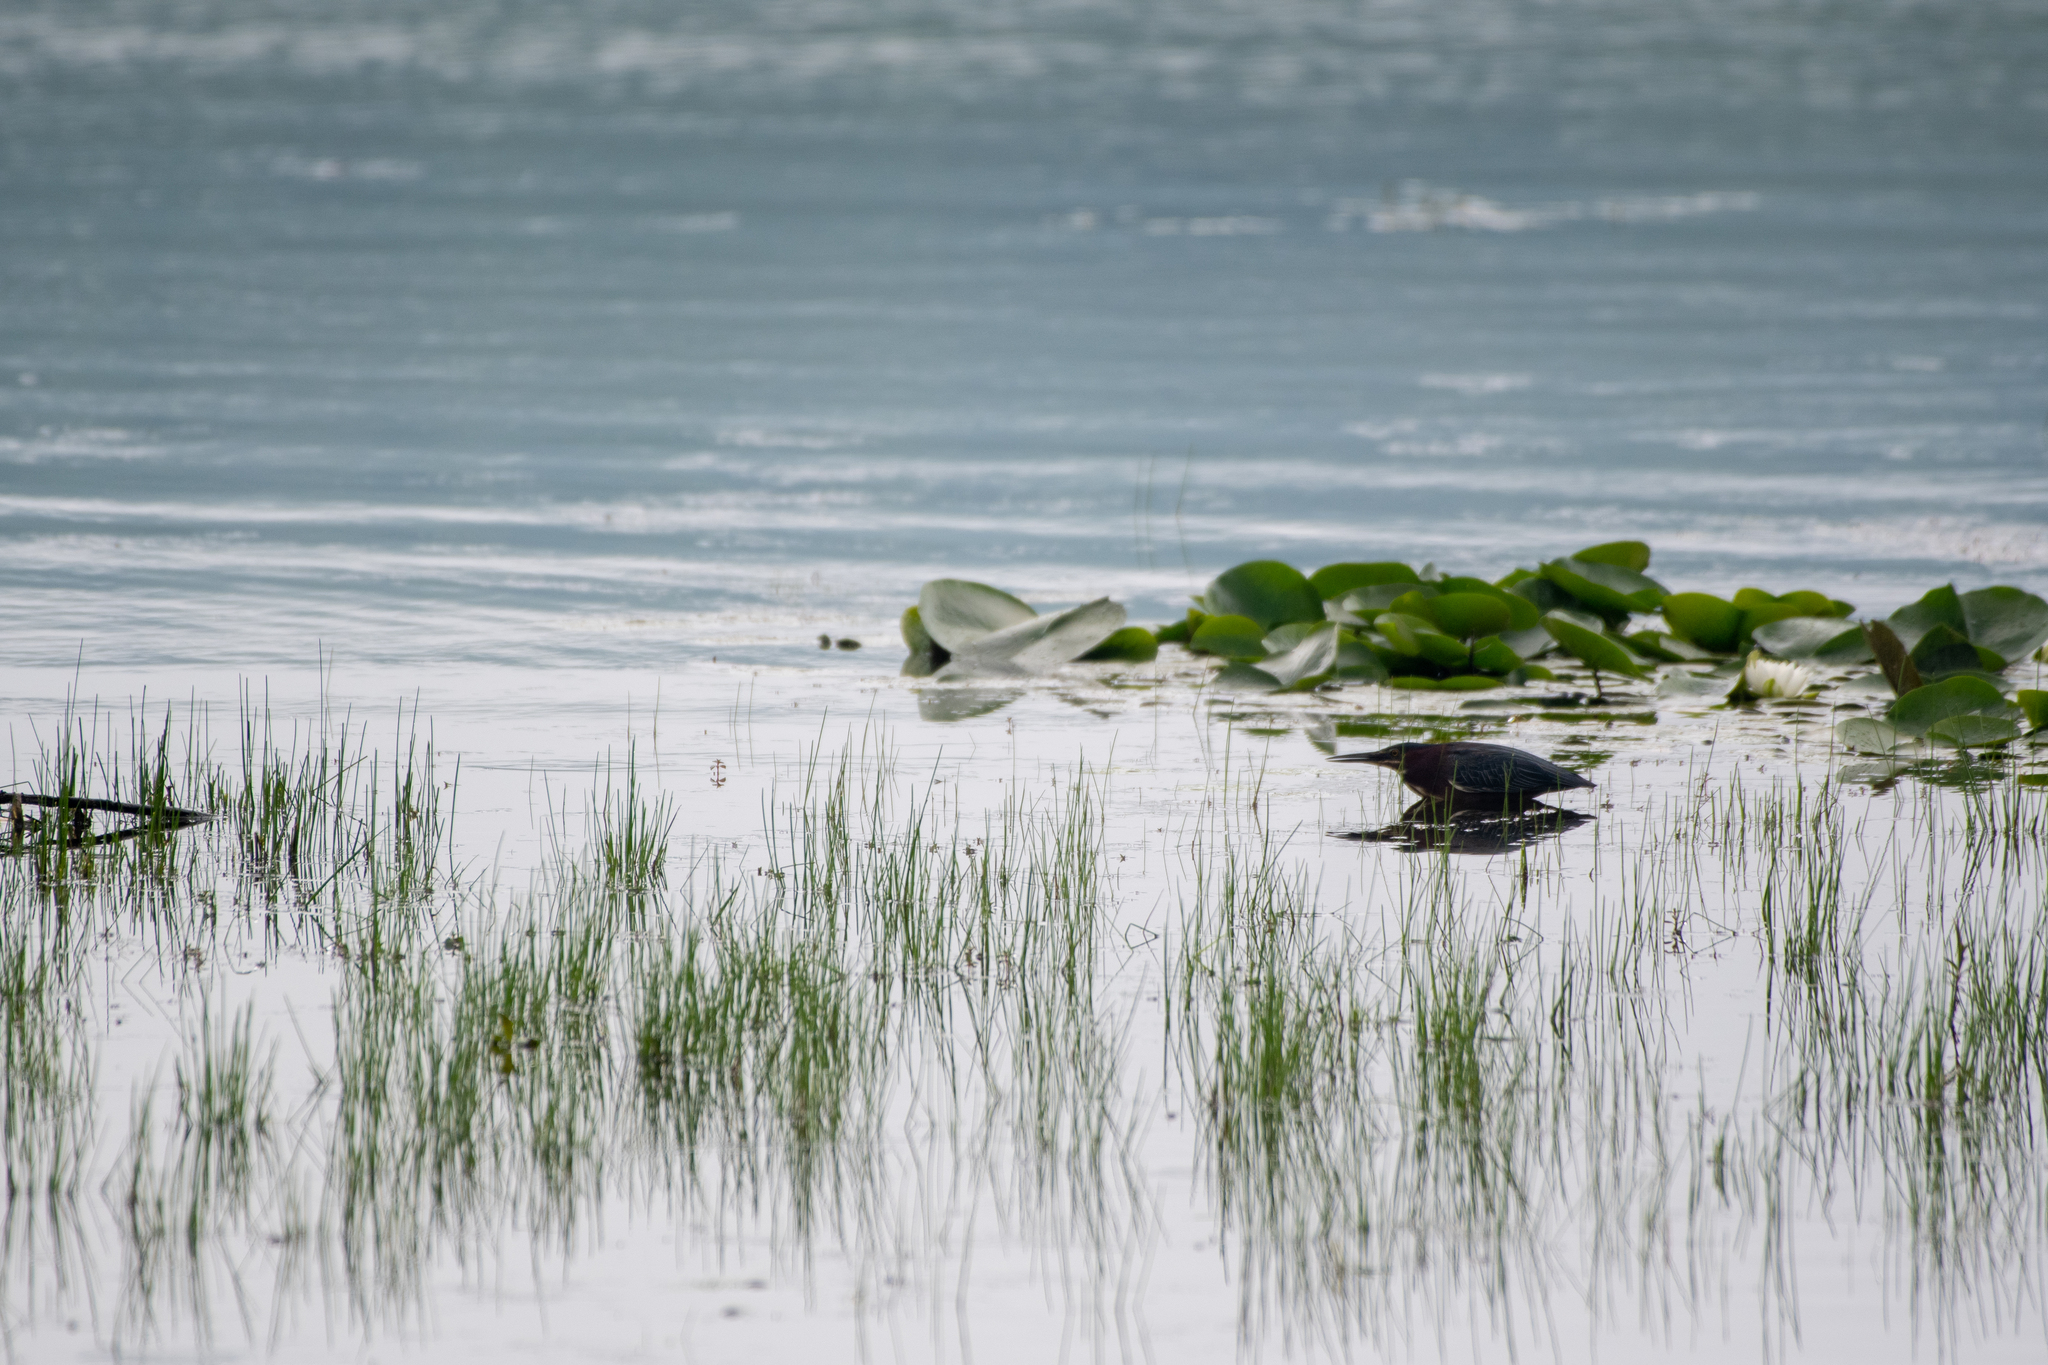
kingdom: Animalia
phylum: Chordata
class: Aves
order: Pelecaniformes
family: Ardeidae
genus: Butorides
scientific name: Butorides virescens
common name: Green heron
